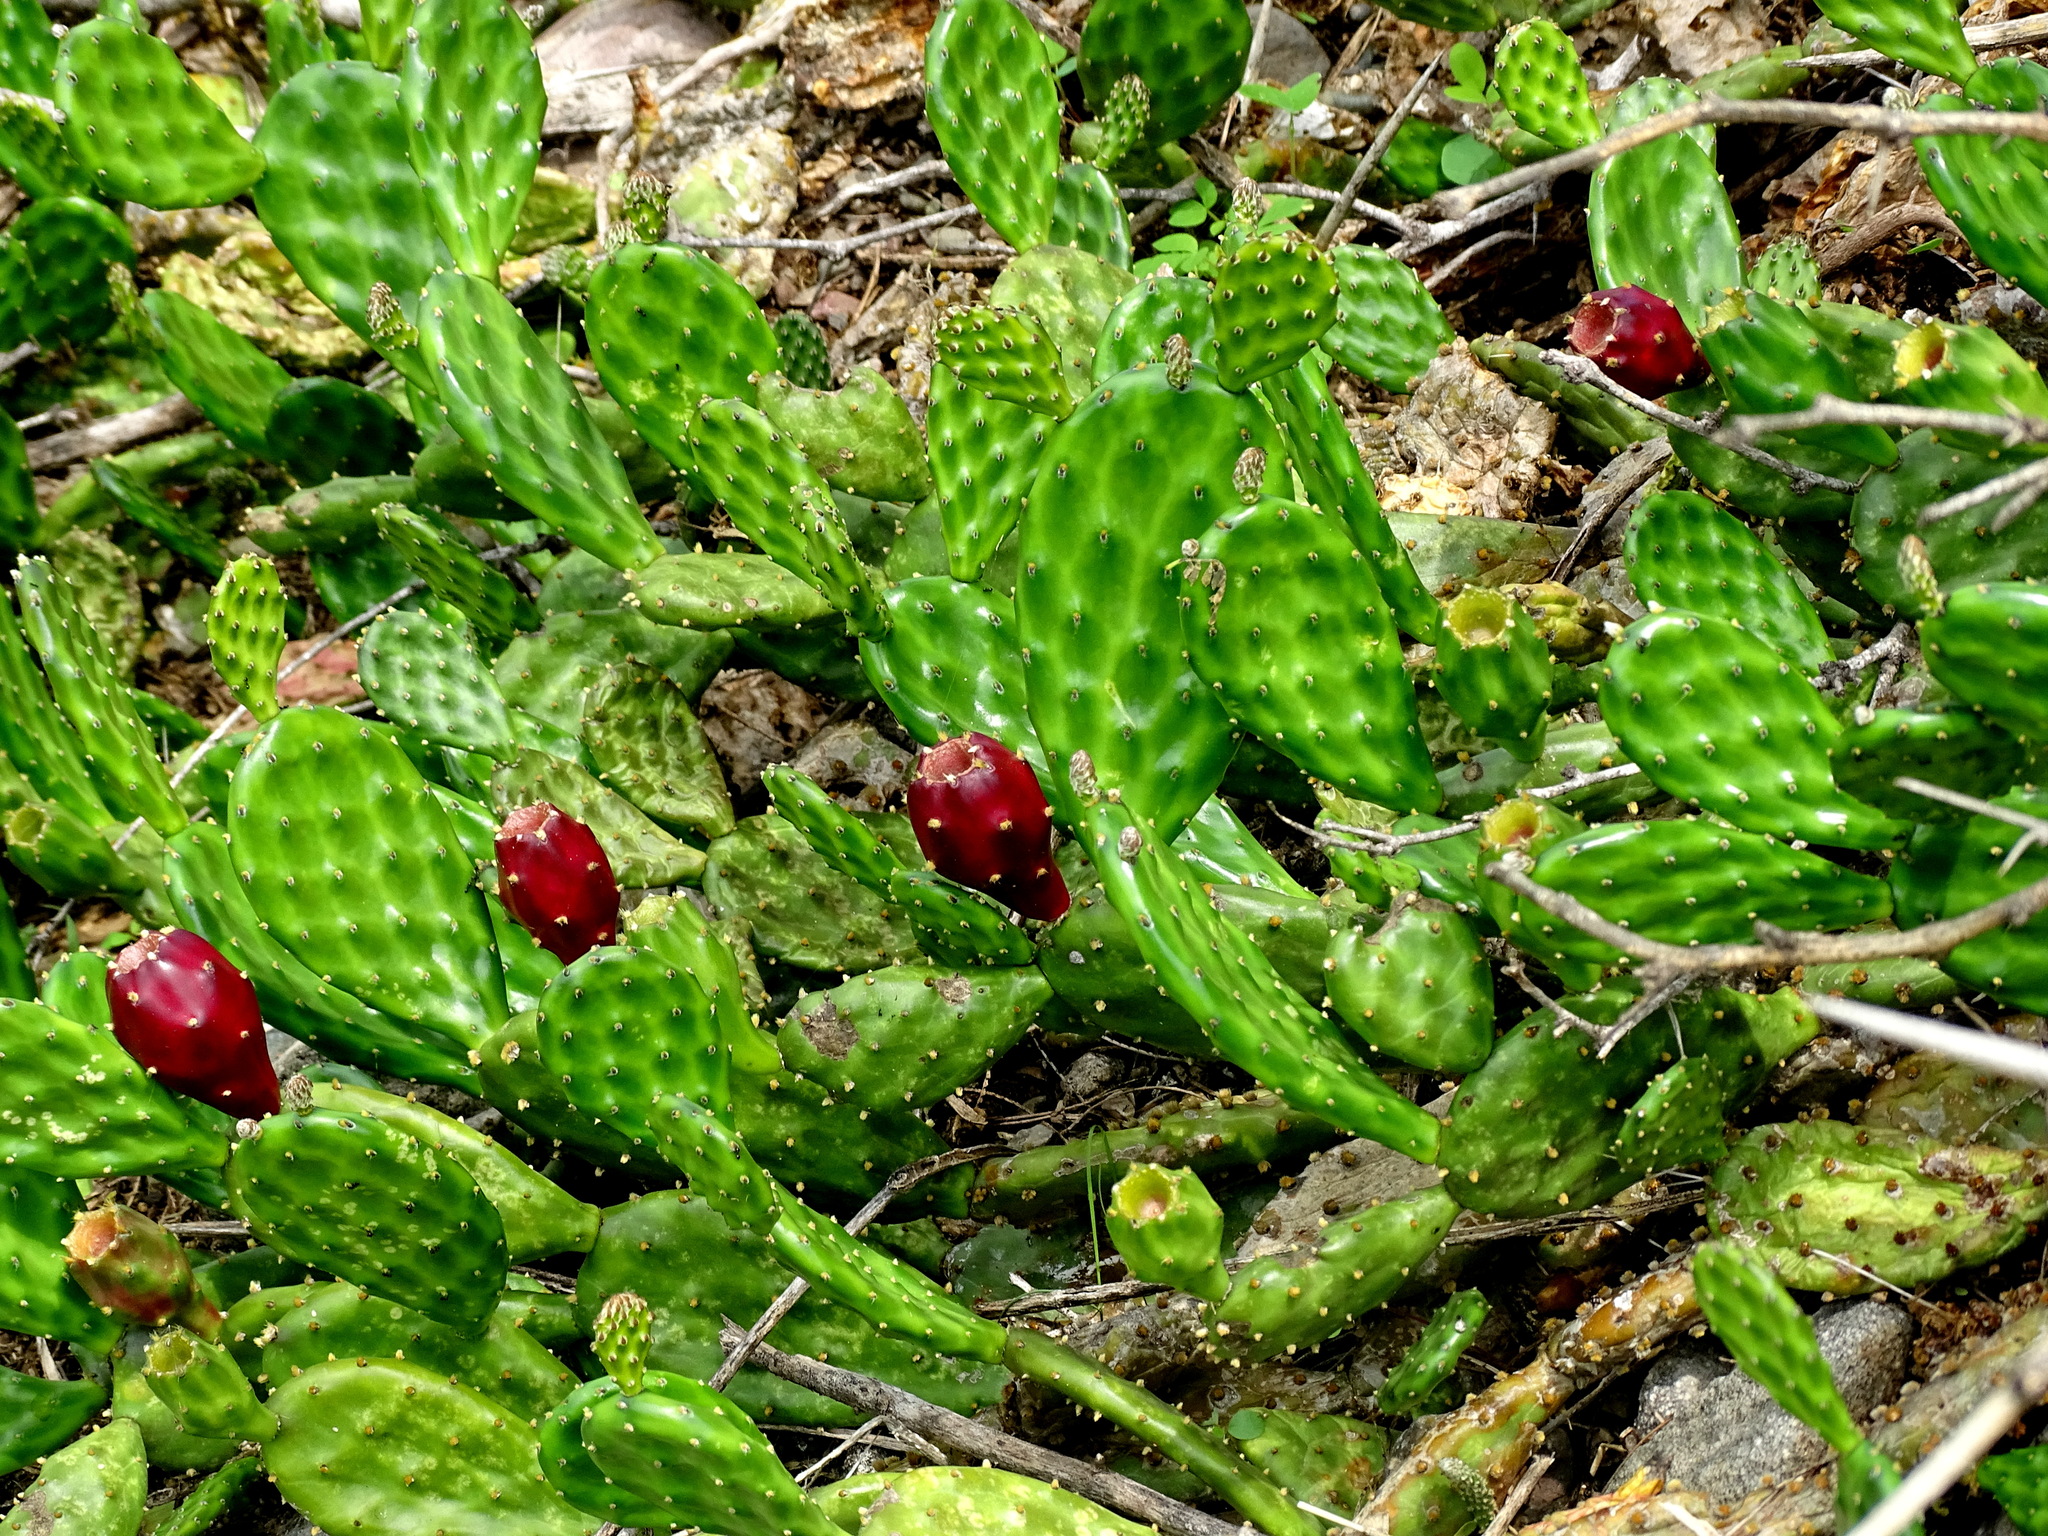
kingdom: Plantae
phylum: Tracheophyta
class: Magnoliopsida
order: Caryophyllales
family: Cactaceae
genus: Opuntia
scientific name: Opuntia decumbens
